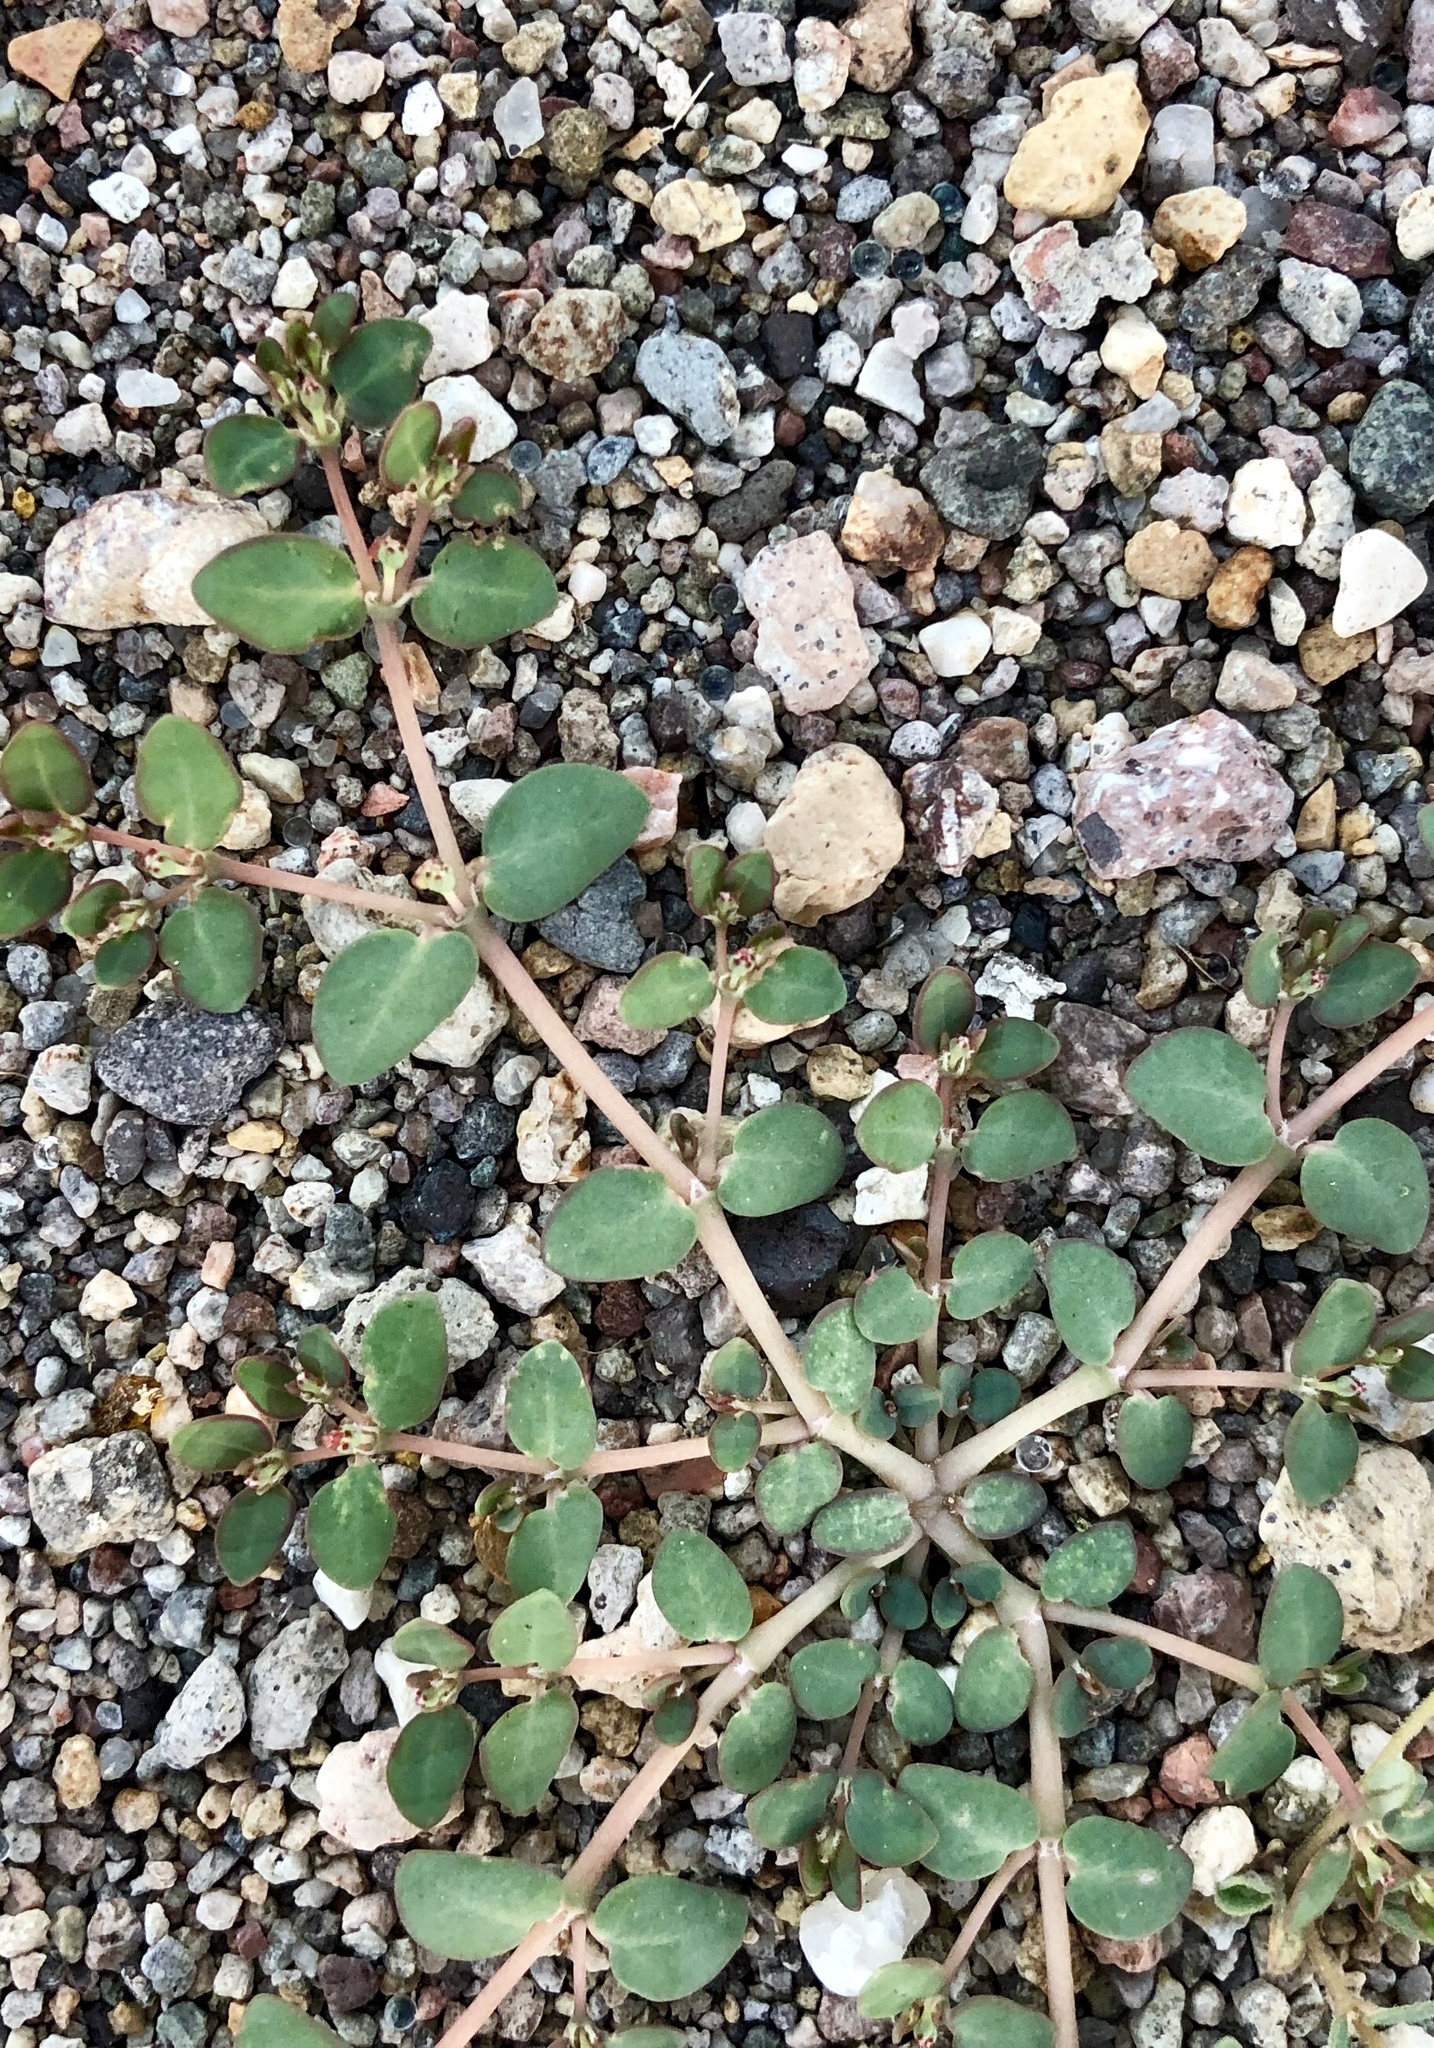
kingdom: Plantae
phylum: Tracheophyta
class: Magnoliopsida
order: Malpighiales
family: Euphorbiaceae
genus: Euphorbia
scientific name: Euphorbia micromera
